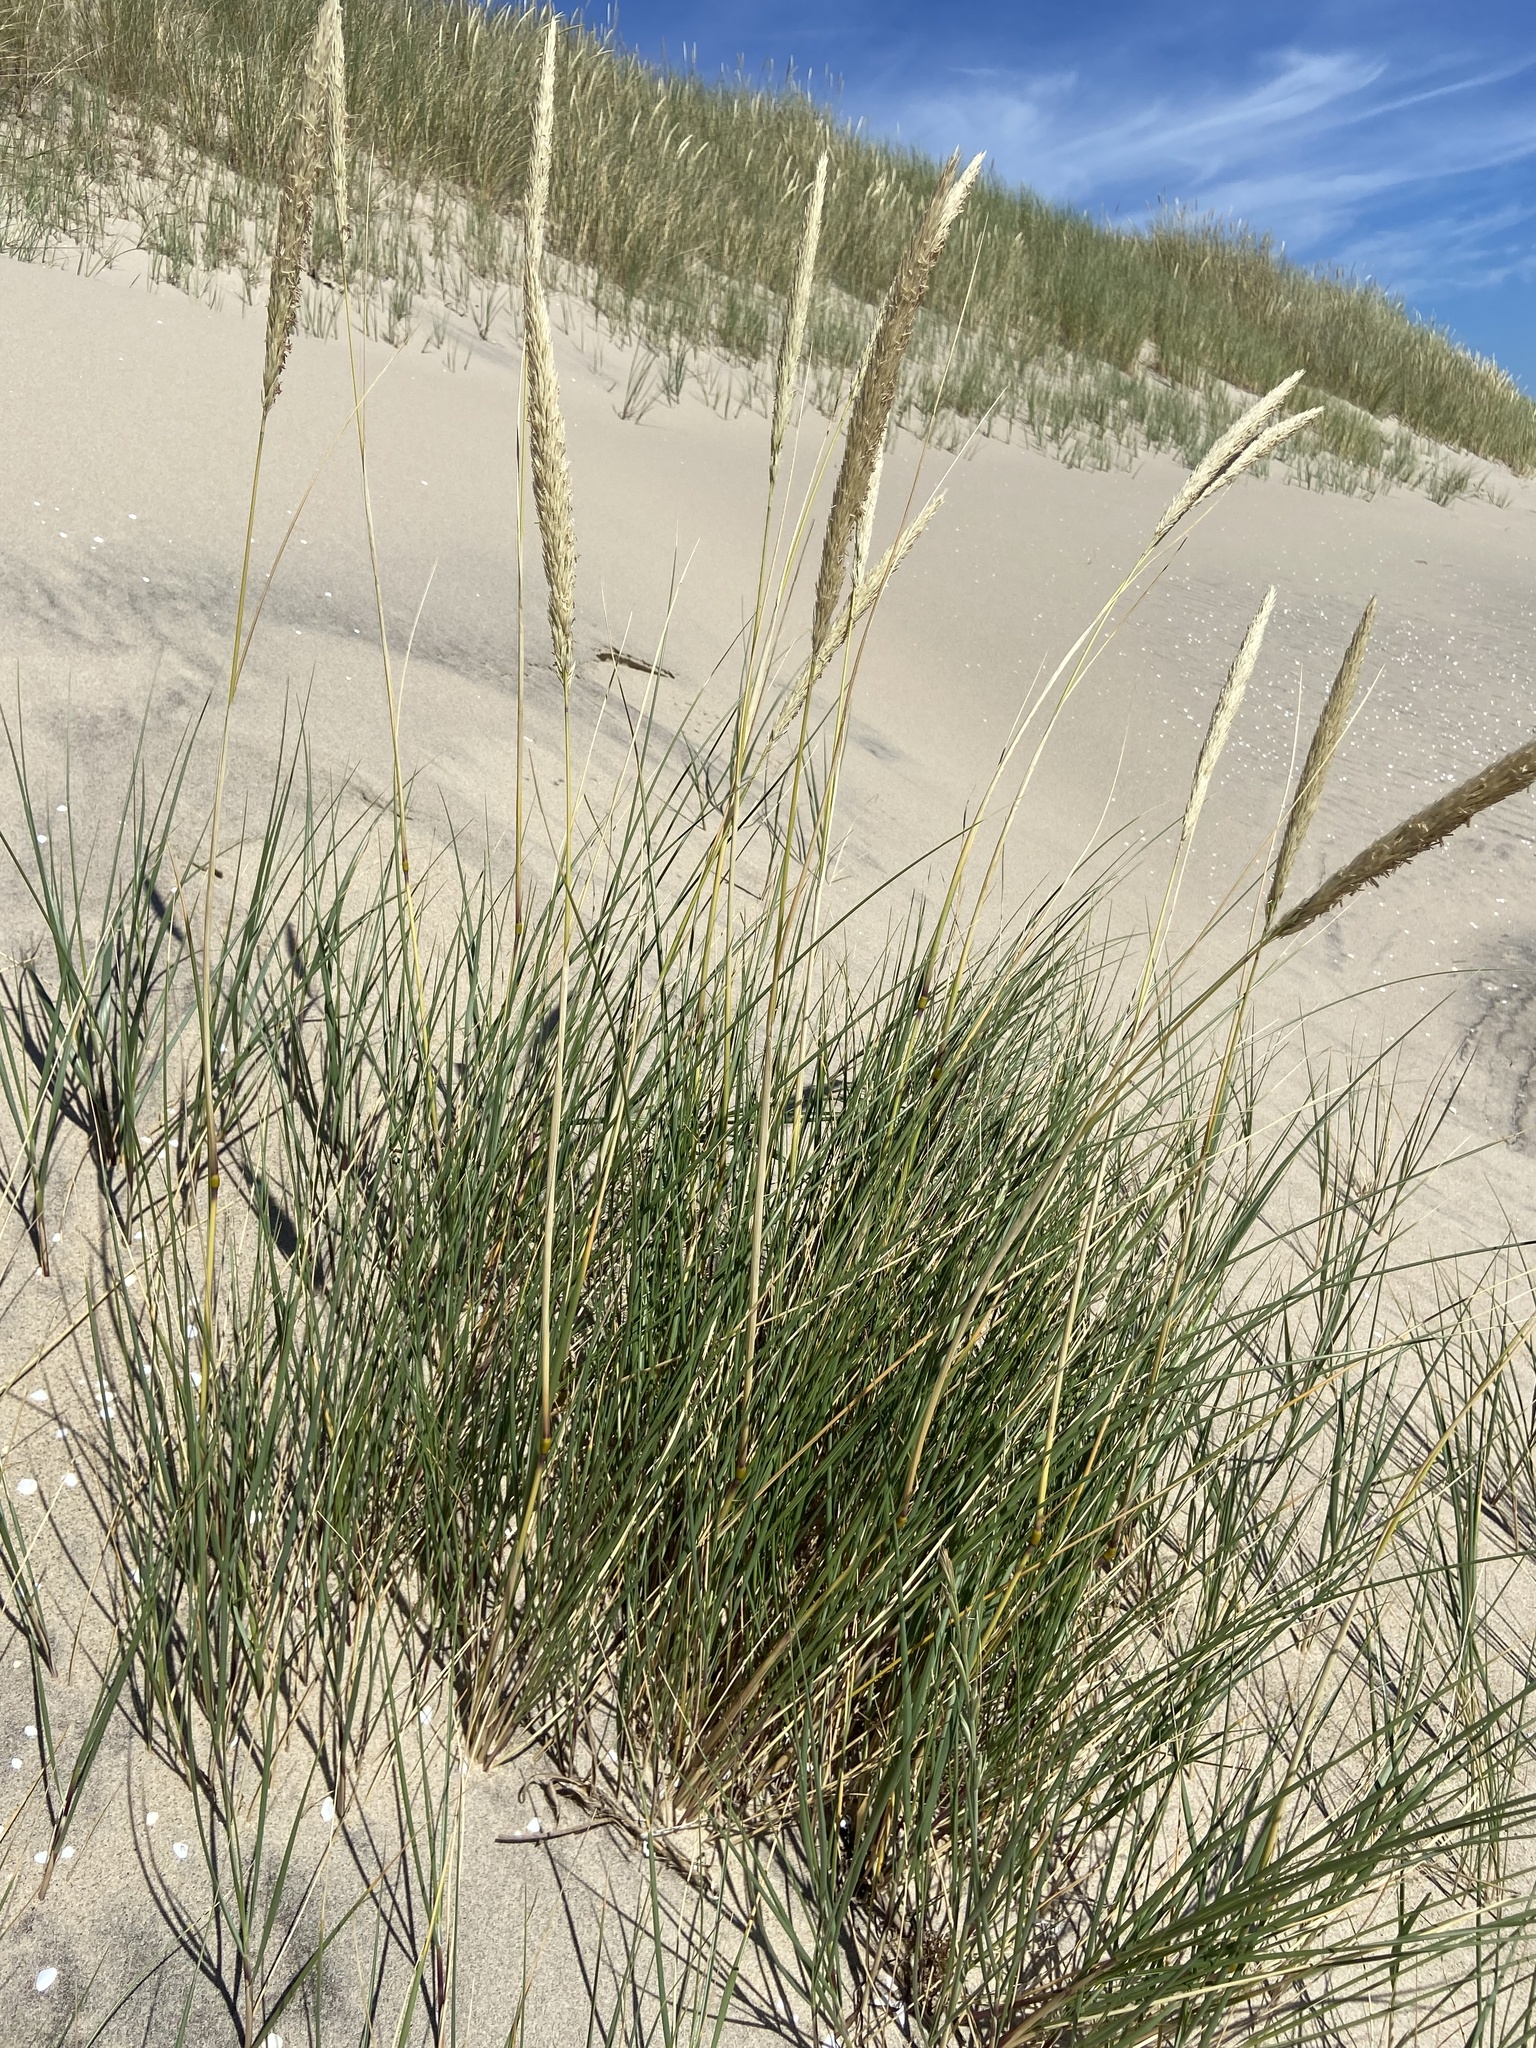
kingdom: Plantae
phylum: Tracheophyta
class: Liliopsida
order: Poales
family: Poaceae
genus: Calamagrostis
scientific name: Calamagrostis arenaria
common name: European beachgrass
